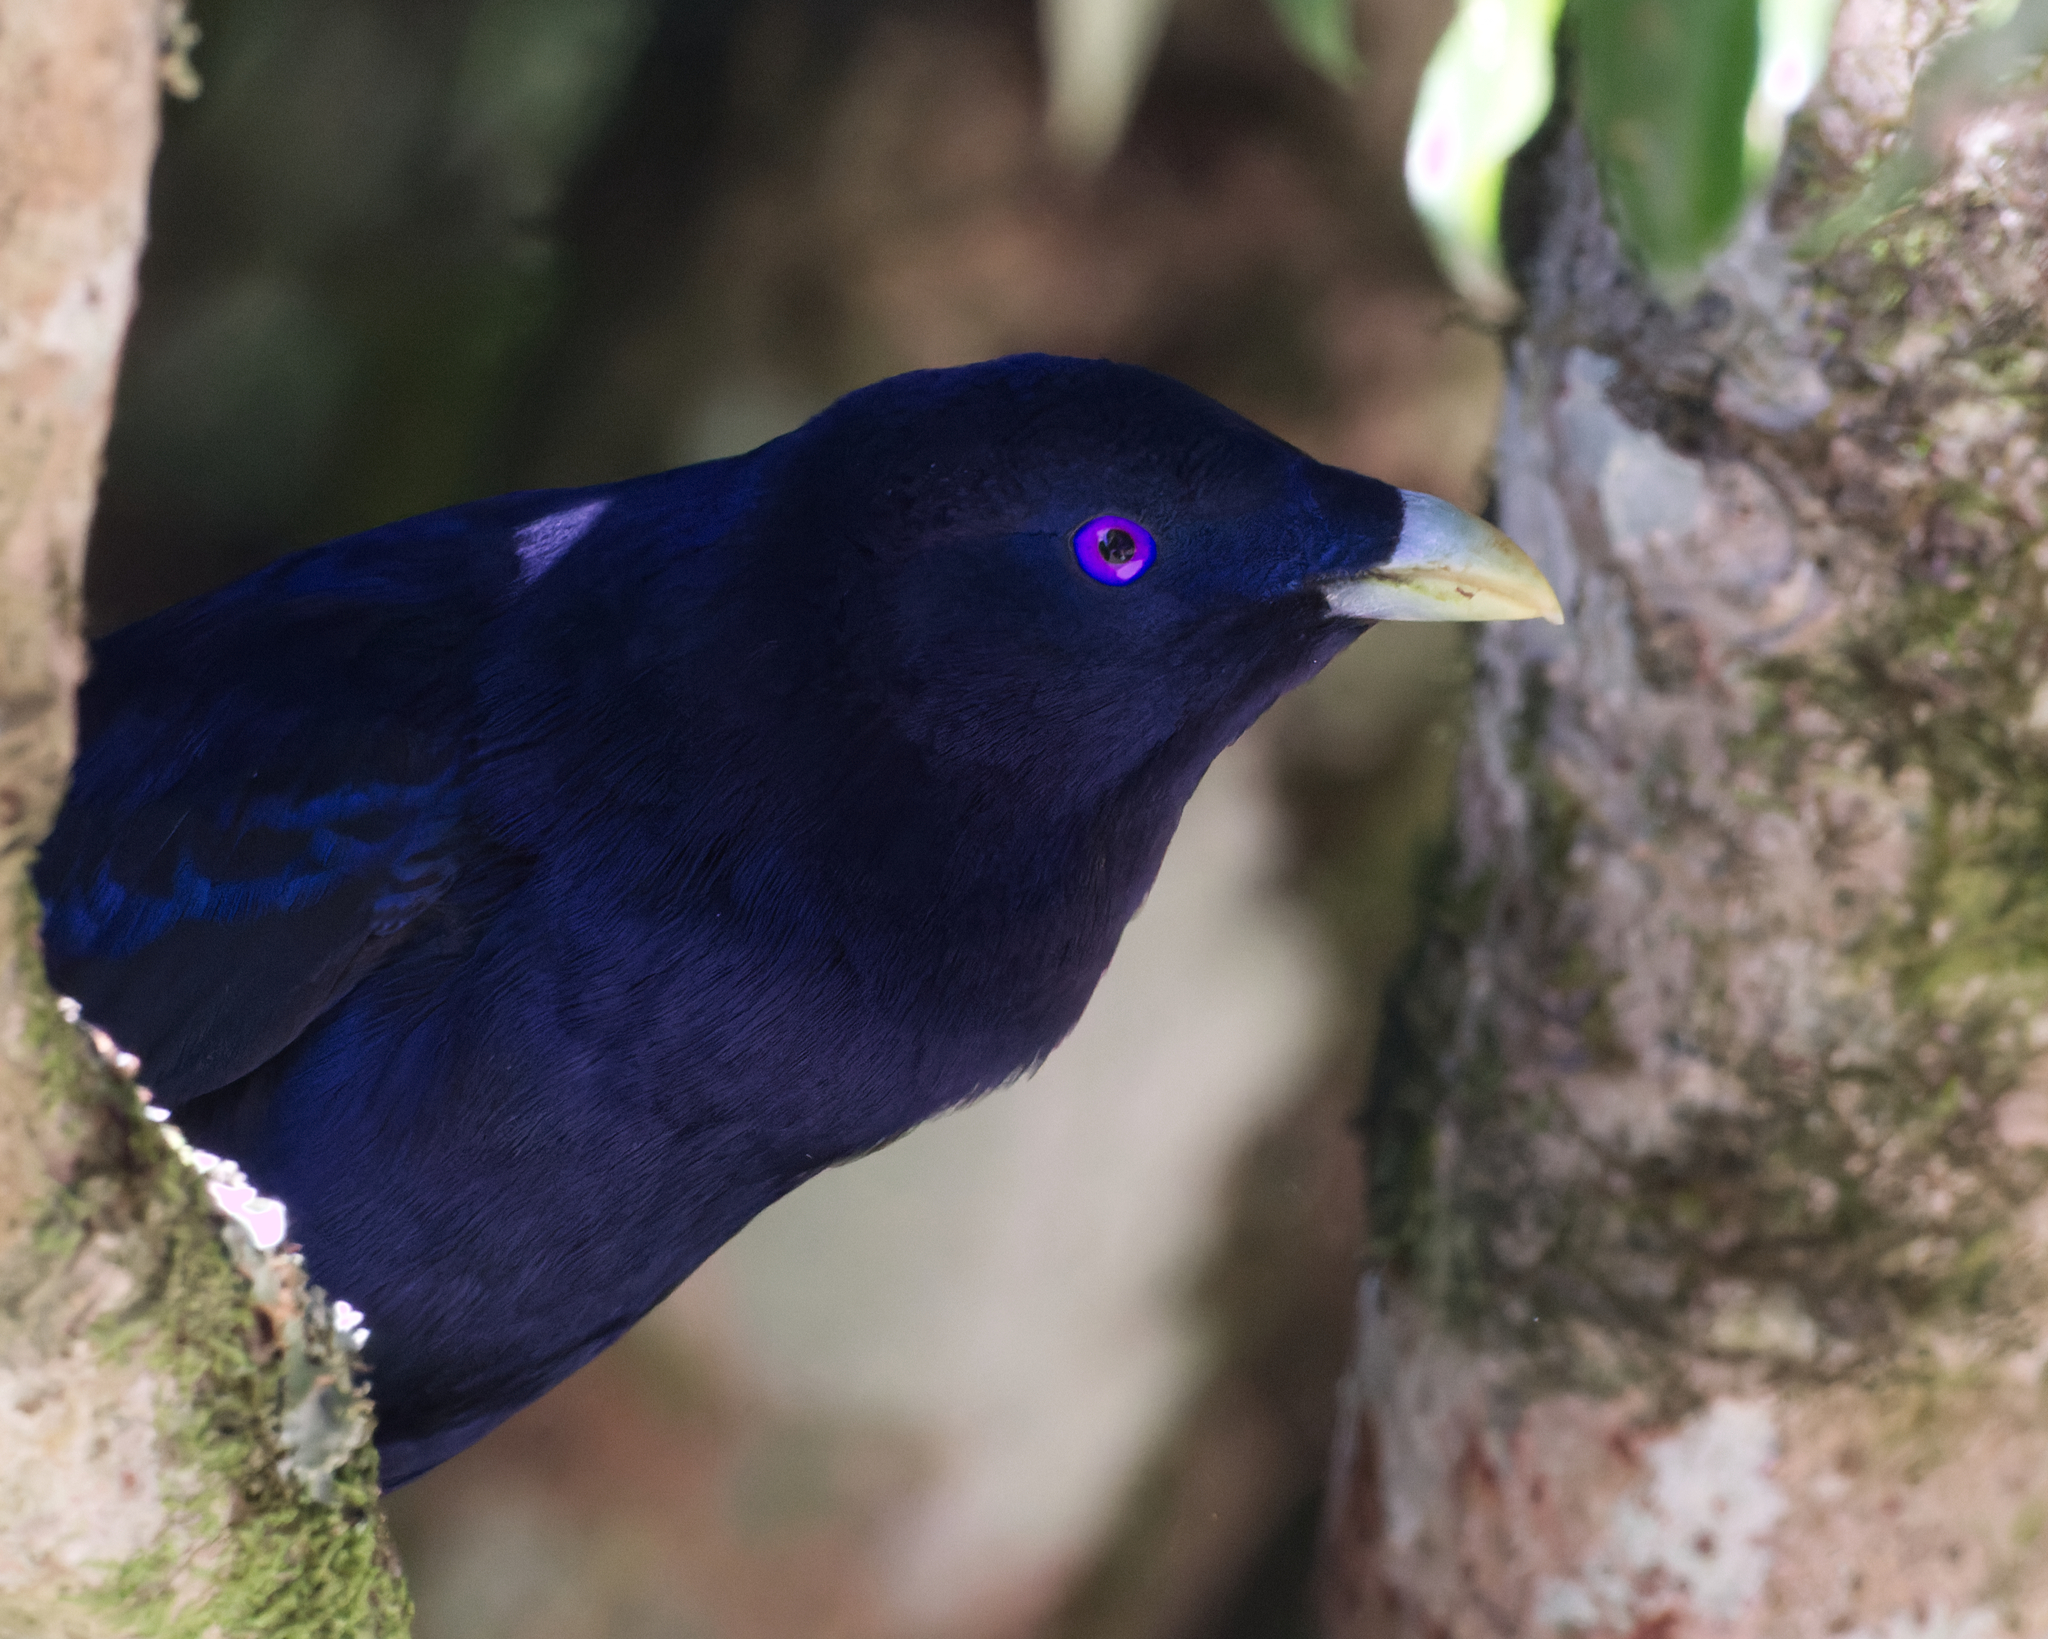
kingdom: Animalia
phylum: Chordata
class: Aves
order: Passeriformes
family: Ptilonorhynchidae
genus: Ptilonorhynchus
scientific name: Ptilonorhynchus violaceus
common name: Satin bowerbird
